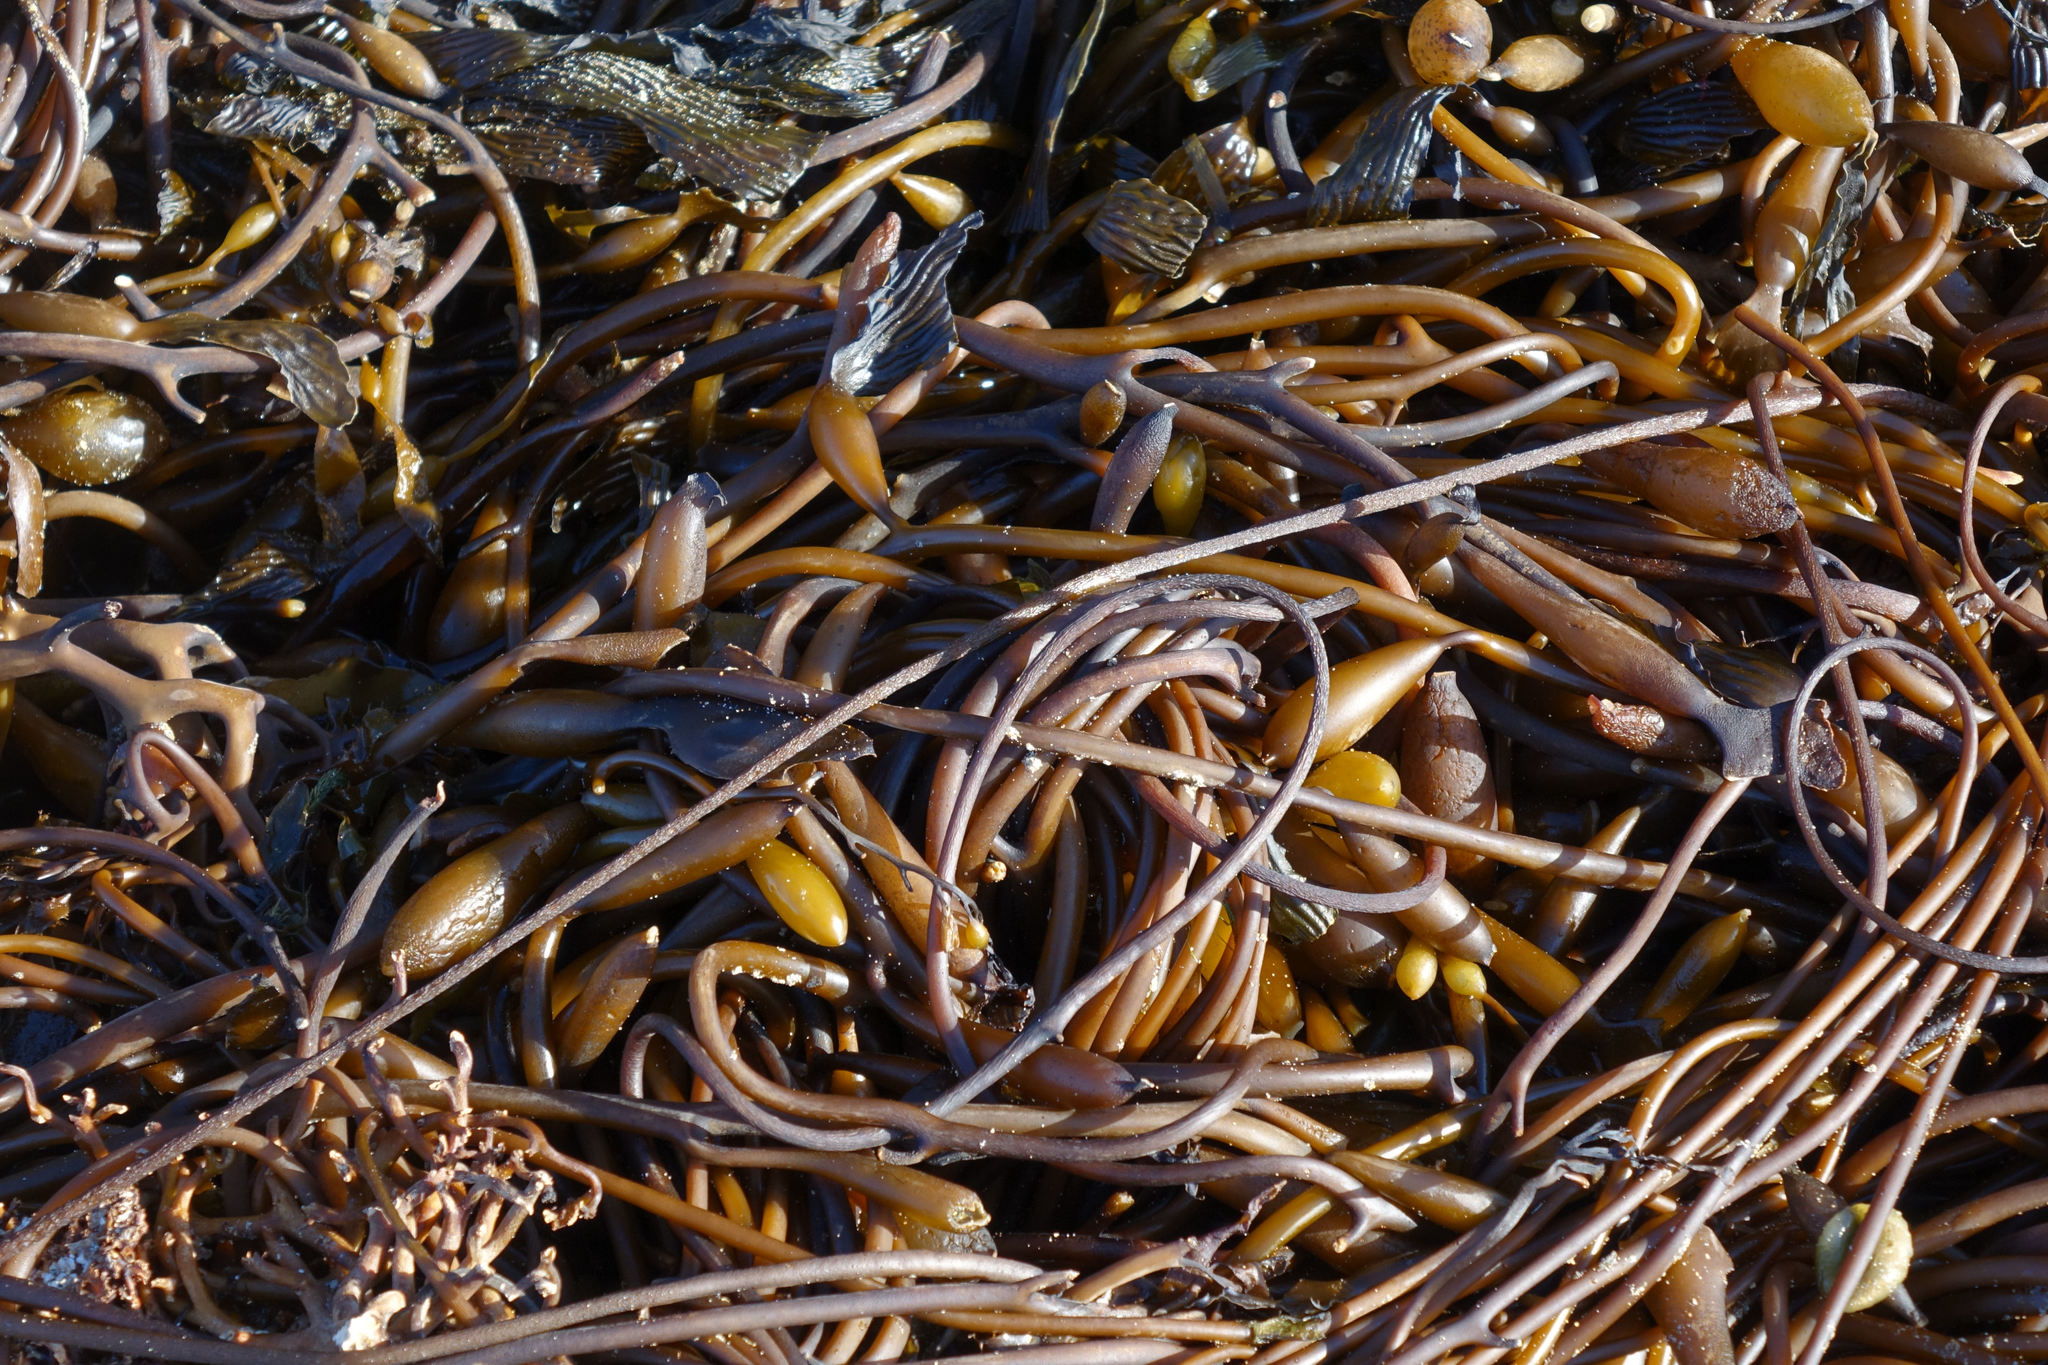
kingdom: Chromista
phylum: Ochrophyta
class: Phaeophyceae
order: Laminariales
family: Laminariaceae
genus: Macrocystis
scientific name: Macrocystis pyrifera
